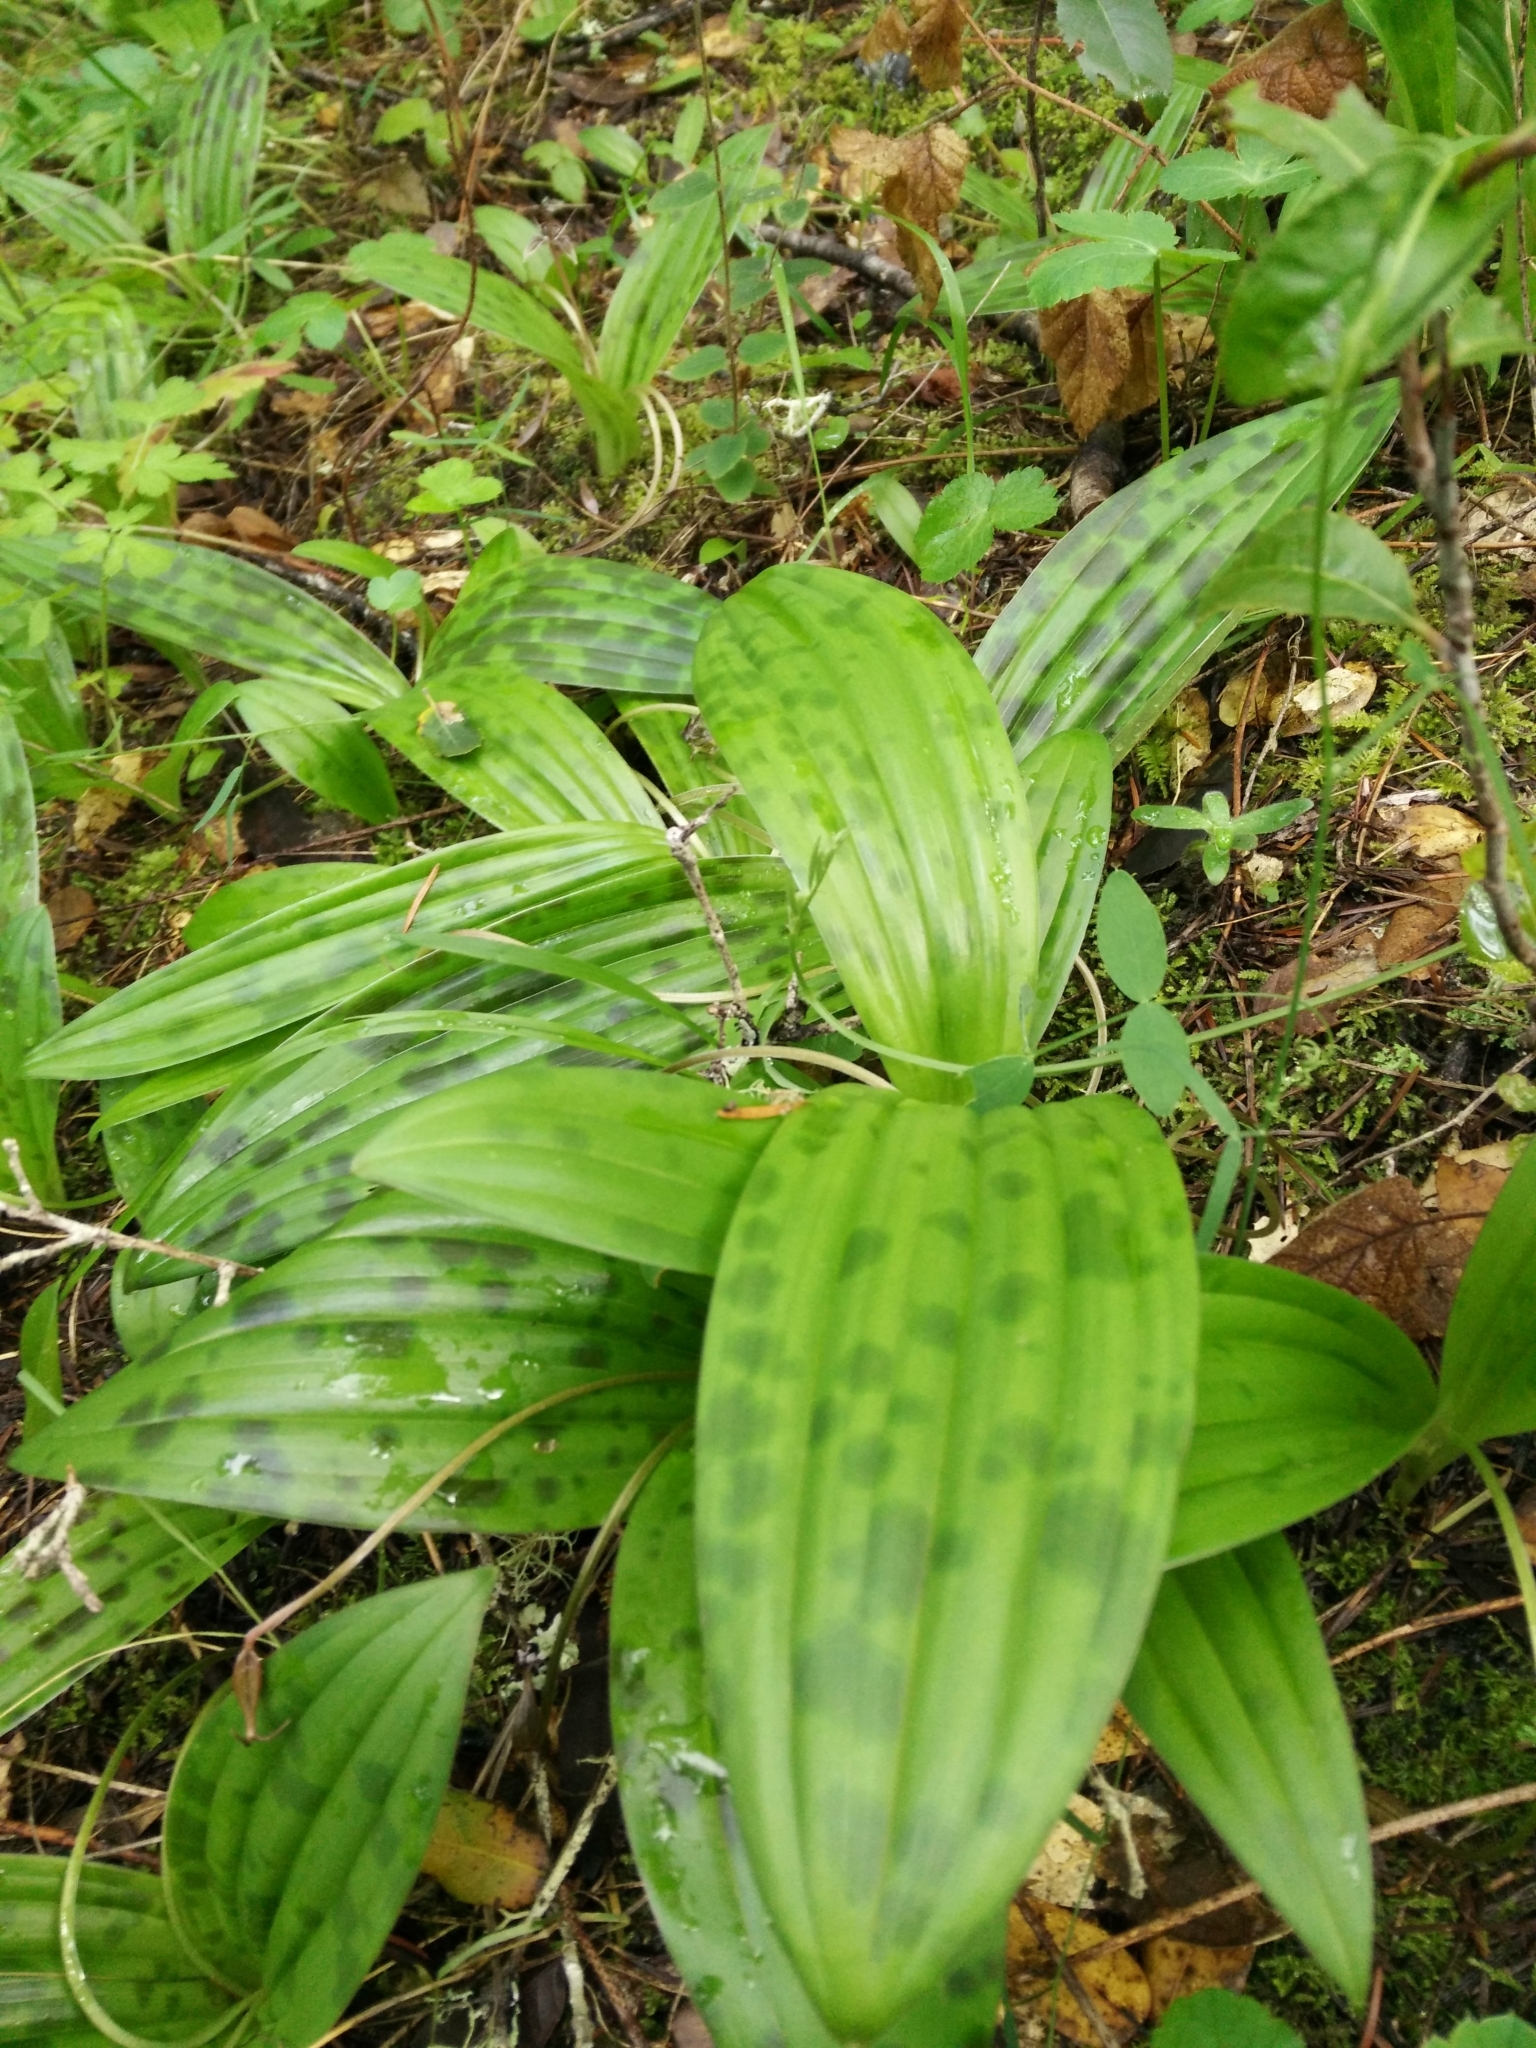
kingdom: Plantae
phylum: Tracheophyta
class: Liliopsida
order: Liliales
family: Liliaceae
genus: Scoliopus
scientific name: Scoliopus bigelovii
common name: Foetid adder's-tongue
